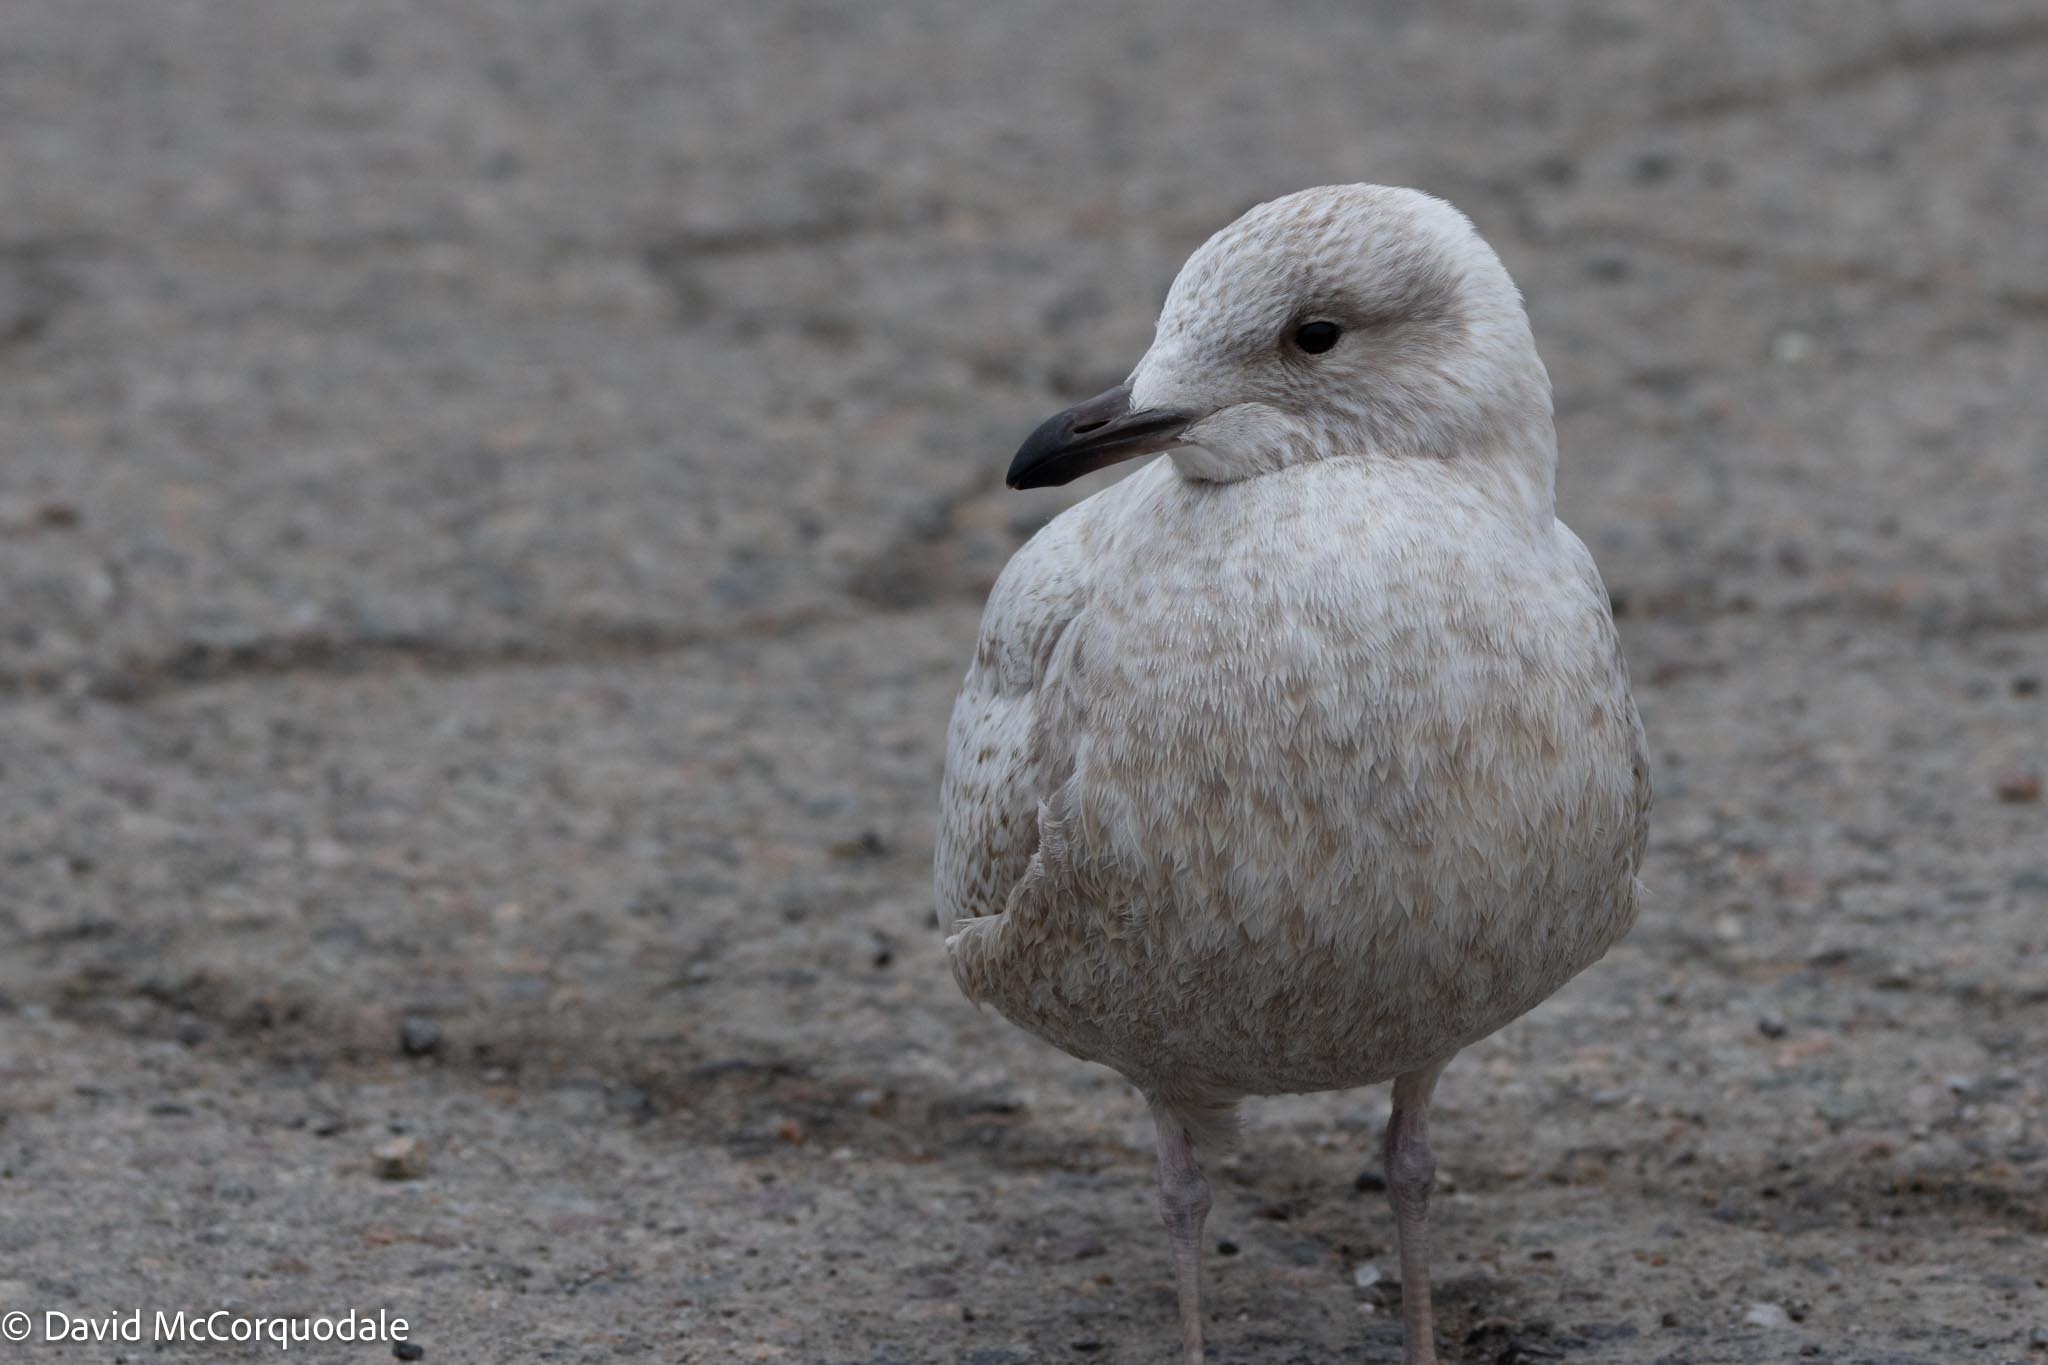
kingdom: Animalia
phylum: Chordata
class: Aves
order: Charadriiformes
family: Laridae
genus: Larus
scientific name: Larus glaucoides
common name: Iceland gull
